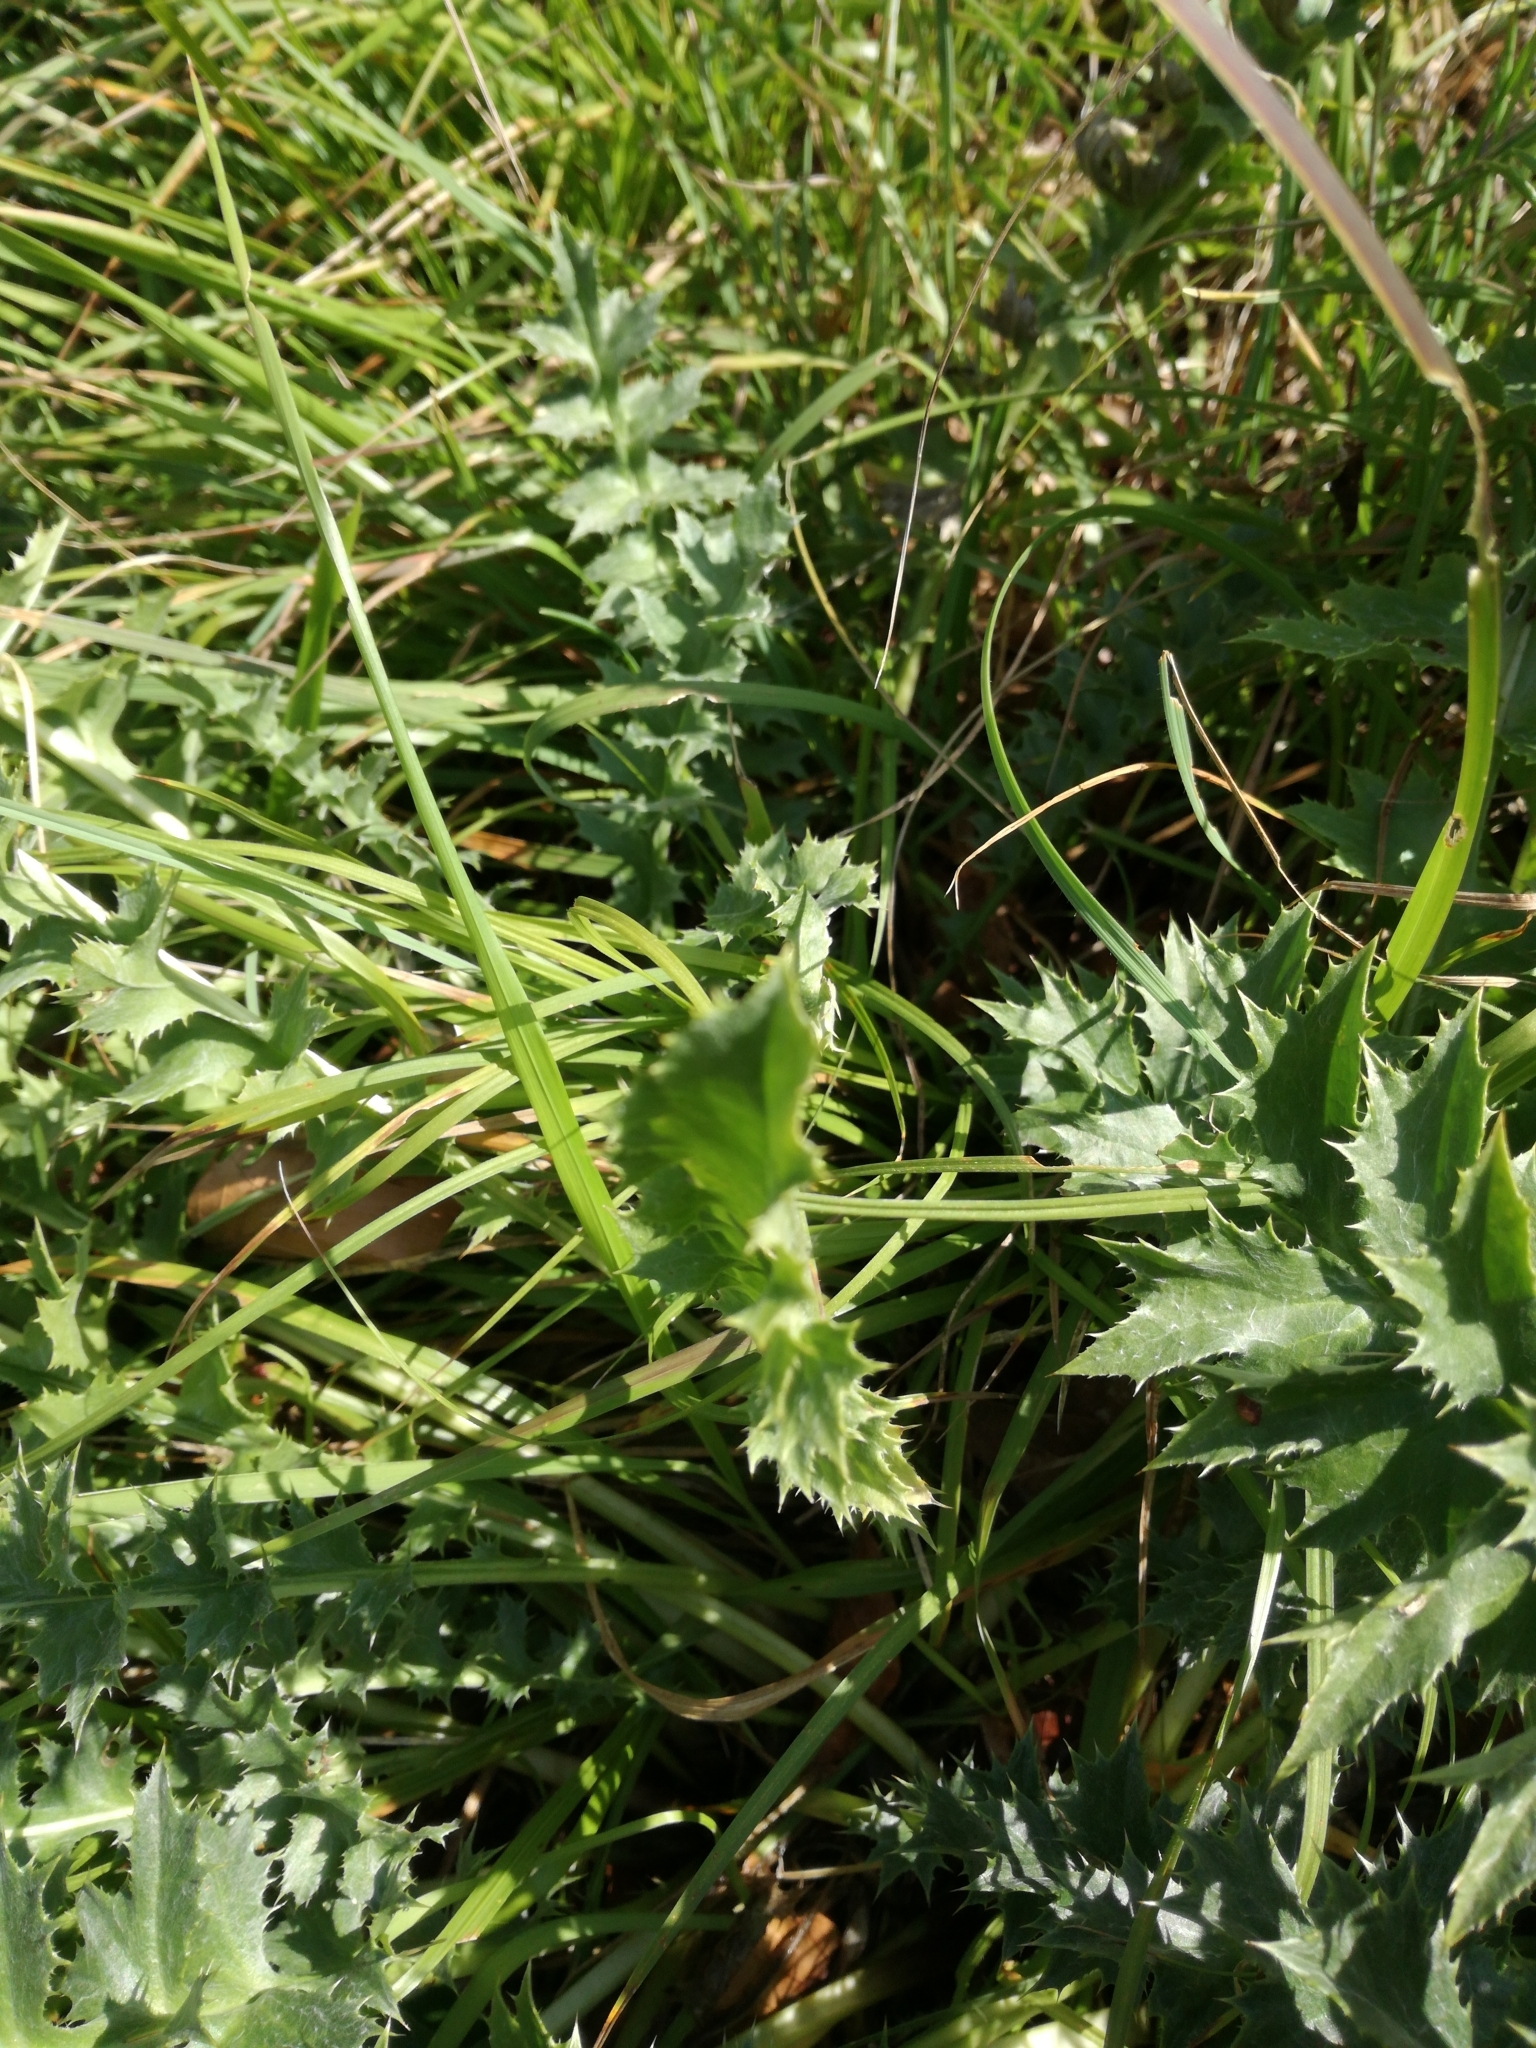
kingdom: Plantae
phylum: Tracheophyta
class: Magnoliopsida
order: Asterales
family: Asteraceae
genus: Carlina
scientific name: Carlina acaulis
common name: Stemless carline thistle
